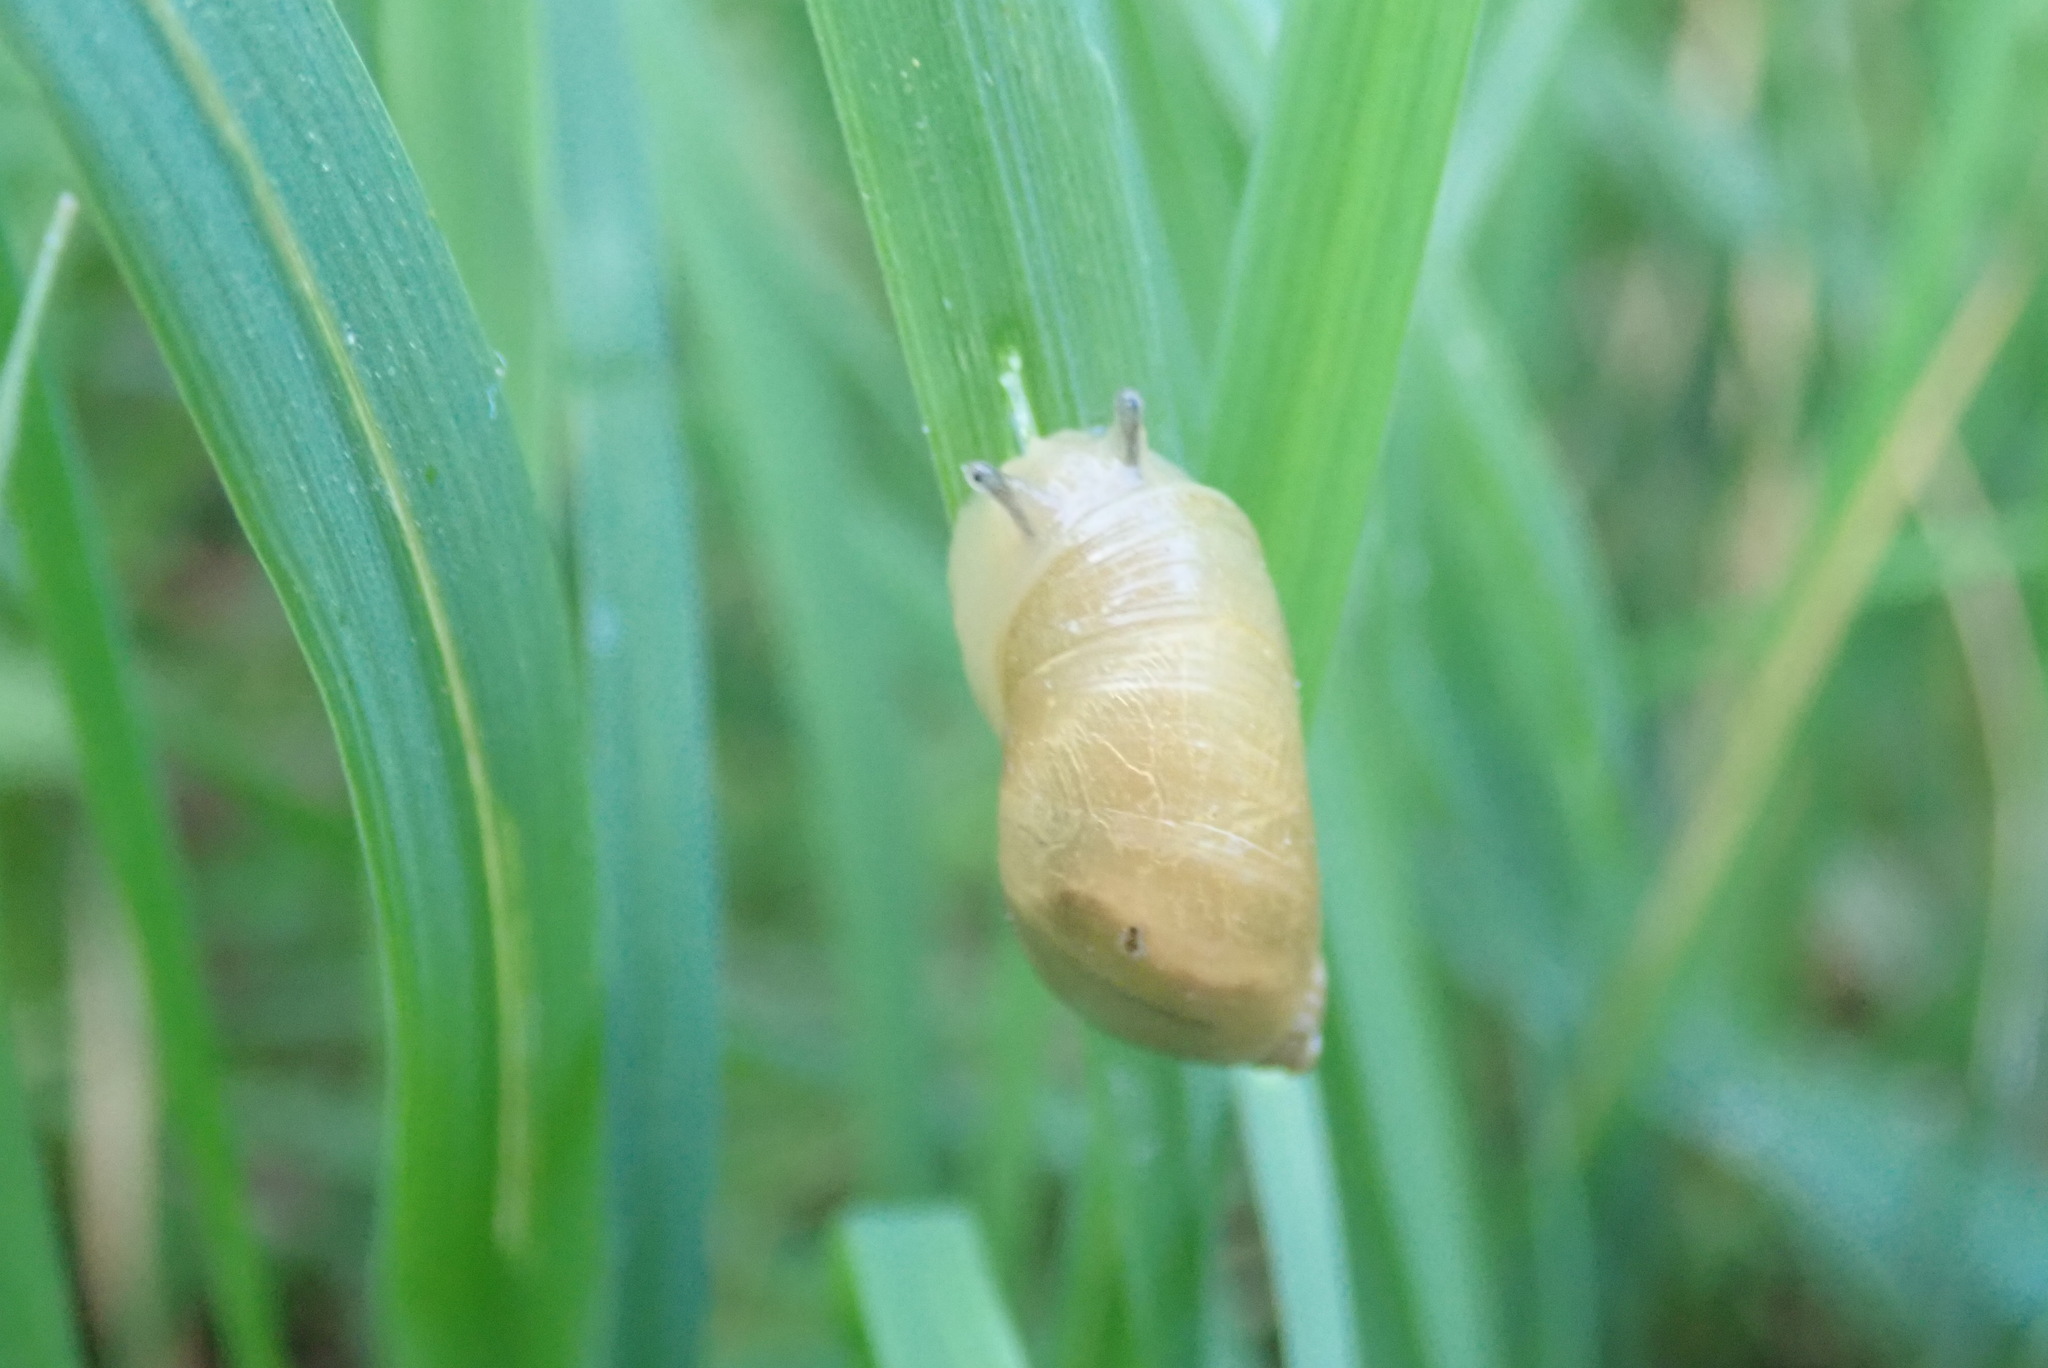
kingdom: Animalia
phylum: Mollusca
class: Gastropoda
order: Stylommatophora
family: Succineidae
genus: Succinea
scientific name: Succinea putris
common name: European ambersnail
